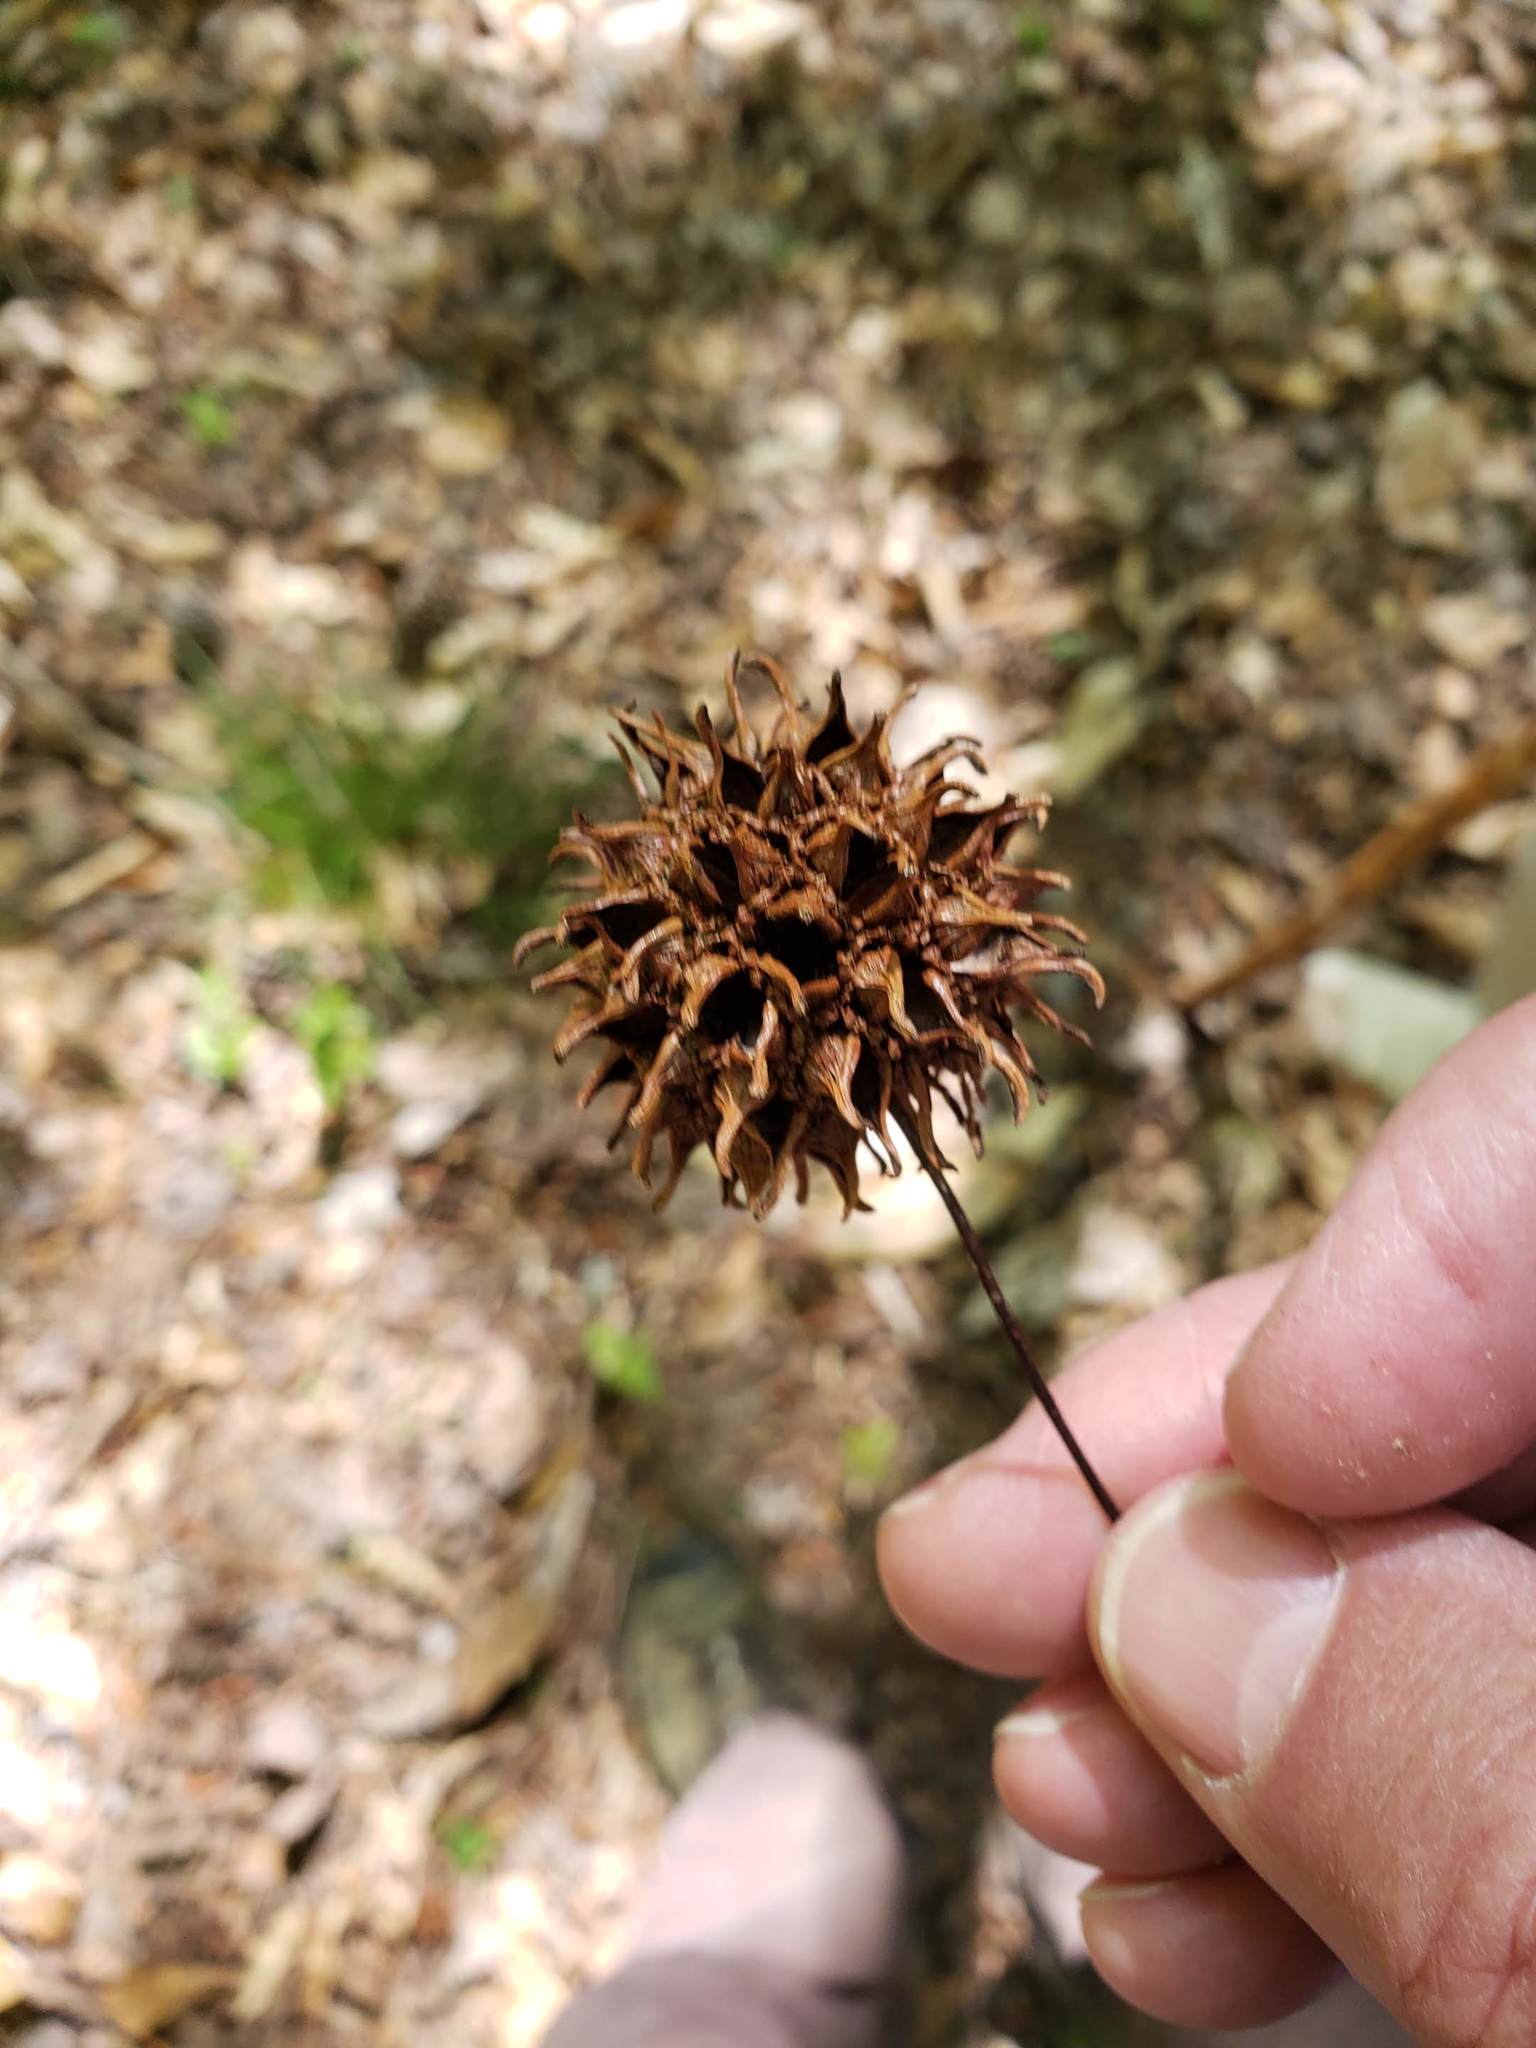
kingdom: Plantae
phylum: Tracheophyta
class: Magnoliopsida
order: Saxifragales
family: Altingiaceae
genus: Liquidambar
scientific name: Liquidambar styraciflua
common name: Sweet gum
